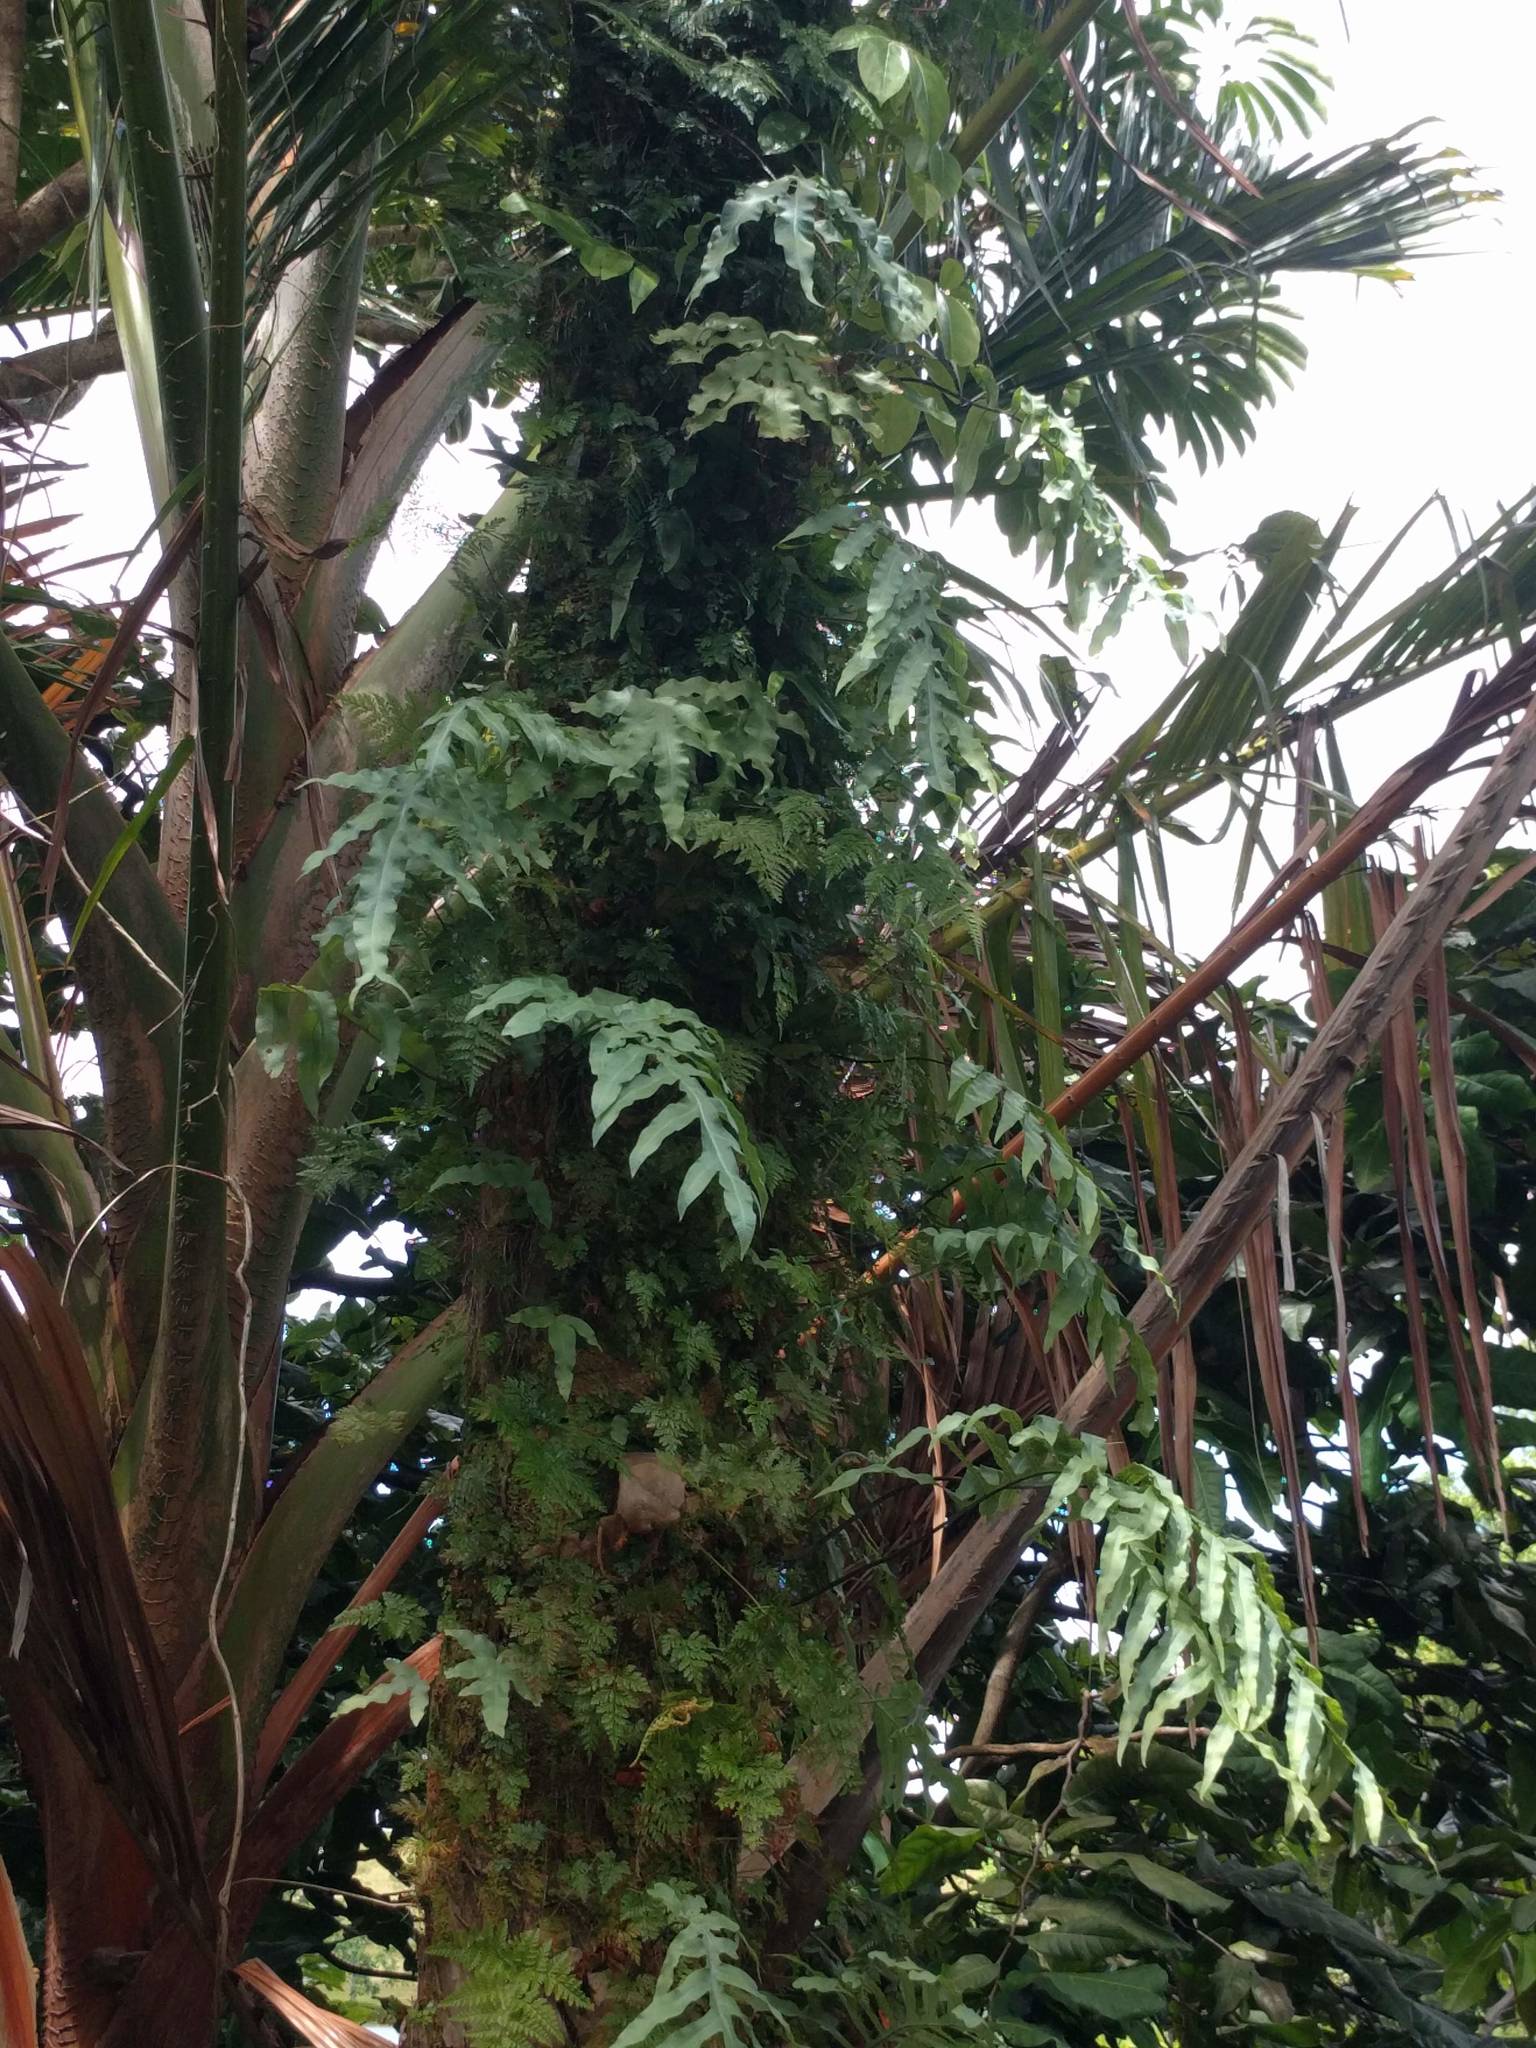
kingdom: Plantae
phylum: Tracheophyta
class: Polypodiopsida
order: Polypodiales
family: Polypodiaceae
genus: Phlebodium
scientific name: Phlebodium aureum
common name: Gold-foot fern
